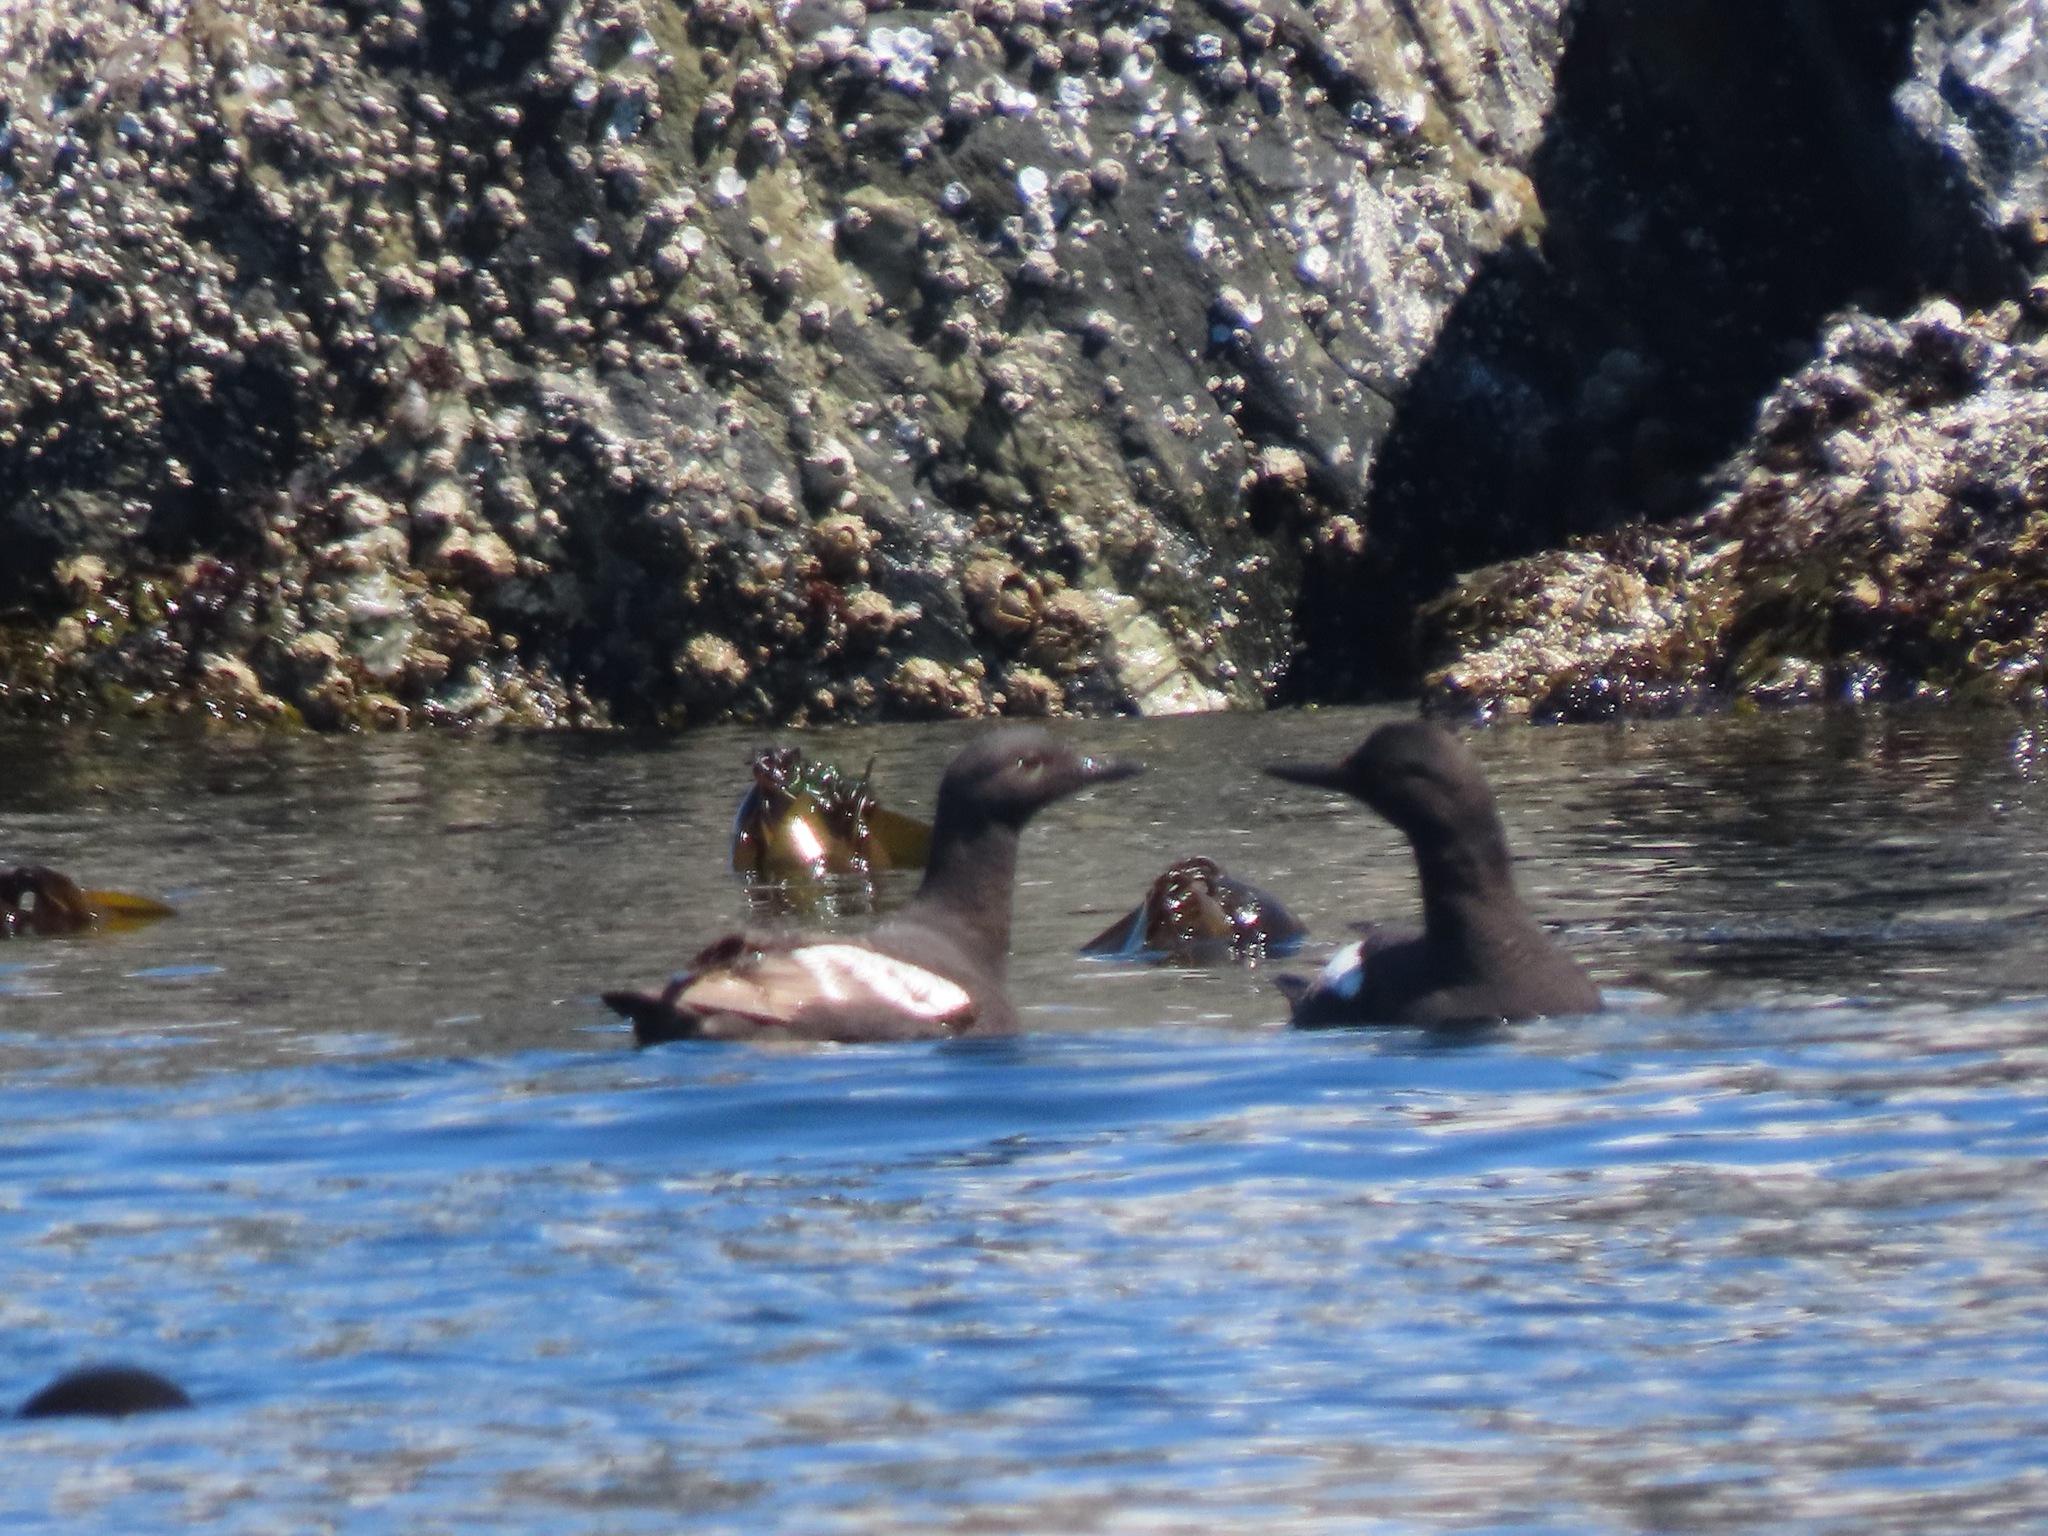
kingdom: Animalia
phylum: Chordata
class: Aves
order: Charadriiformes
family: Alcidae
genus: Cepphus
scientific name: Cepphus columba
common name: Pigeon guillemot
